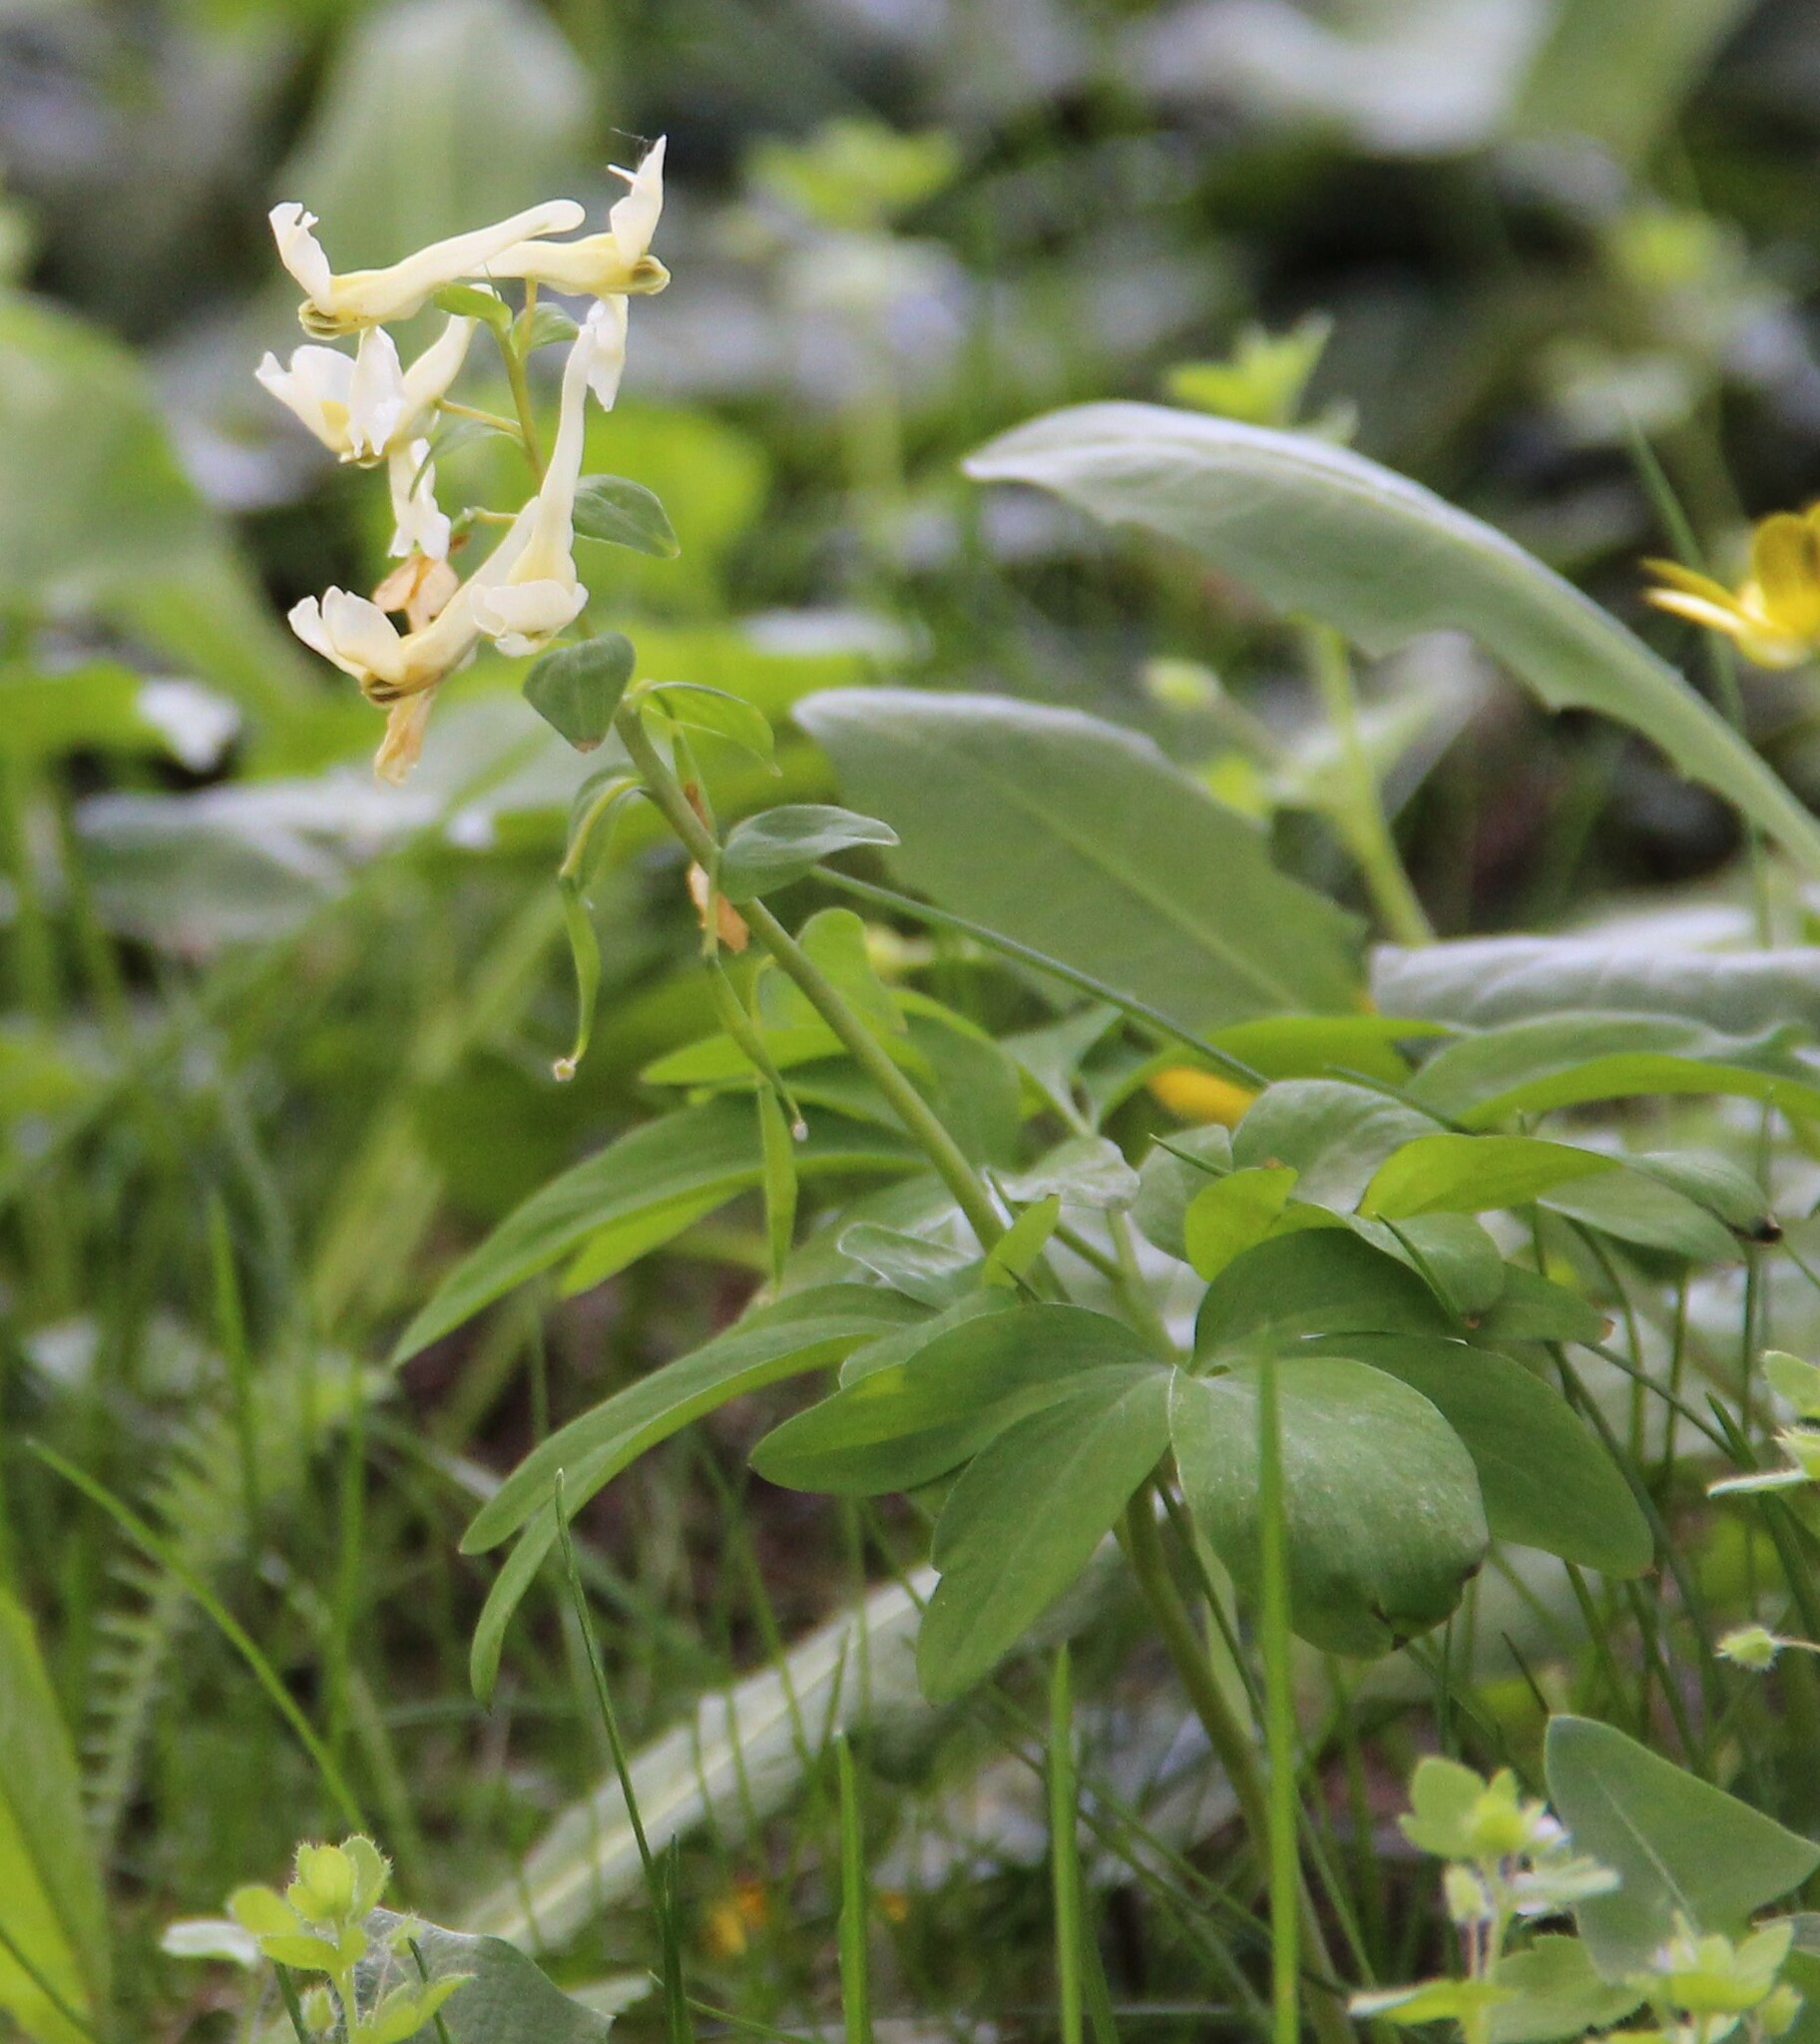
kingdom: Plantae
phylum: Tracheophyta
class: Magnoliopsida
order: Ranunculales
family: Papaveraceae
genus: Corydalis
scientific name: Corydalis cava
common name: Hollowroot
